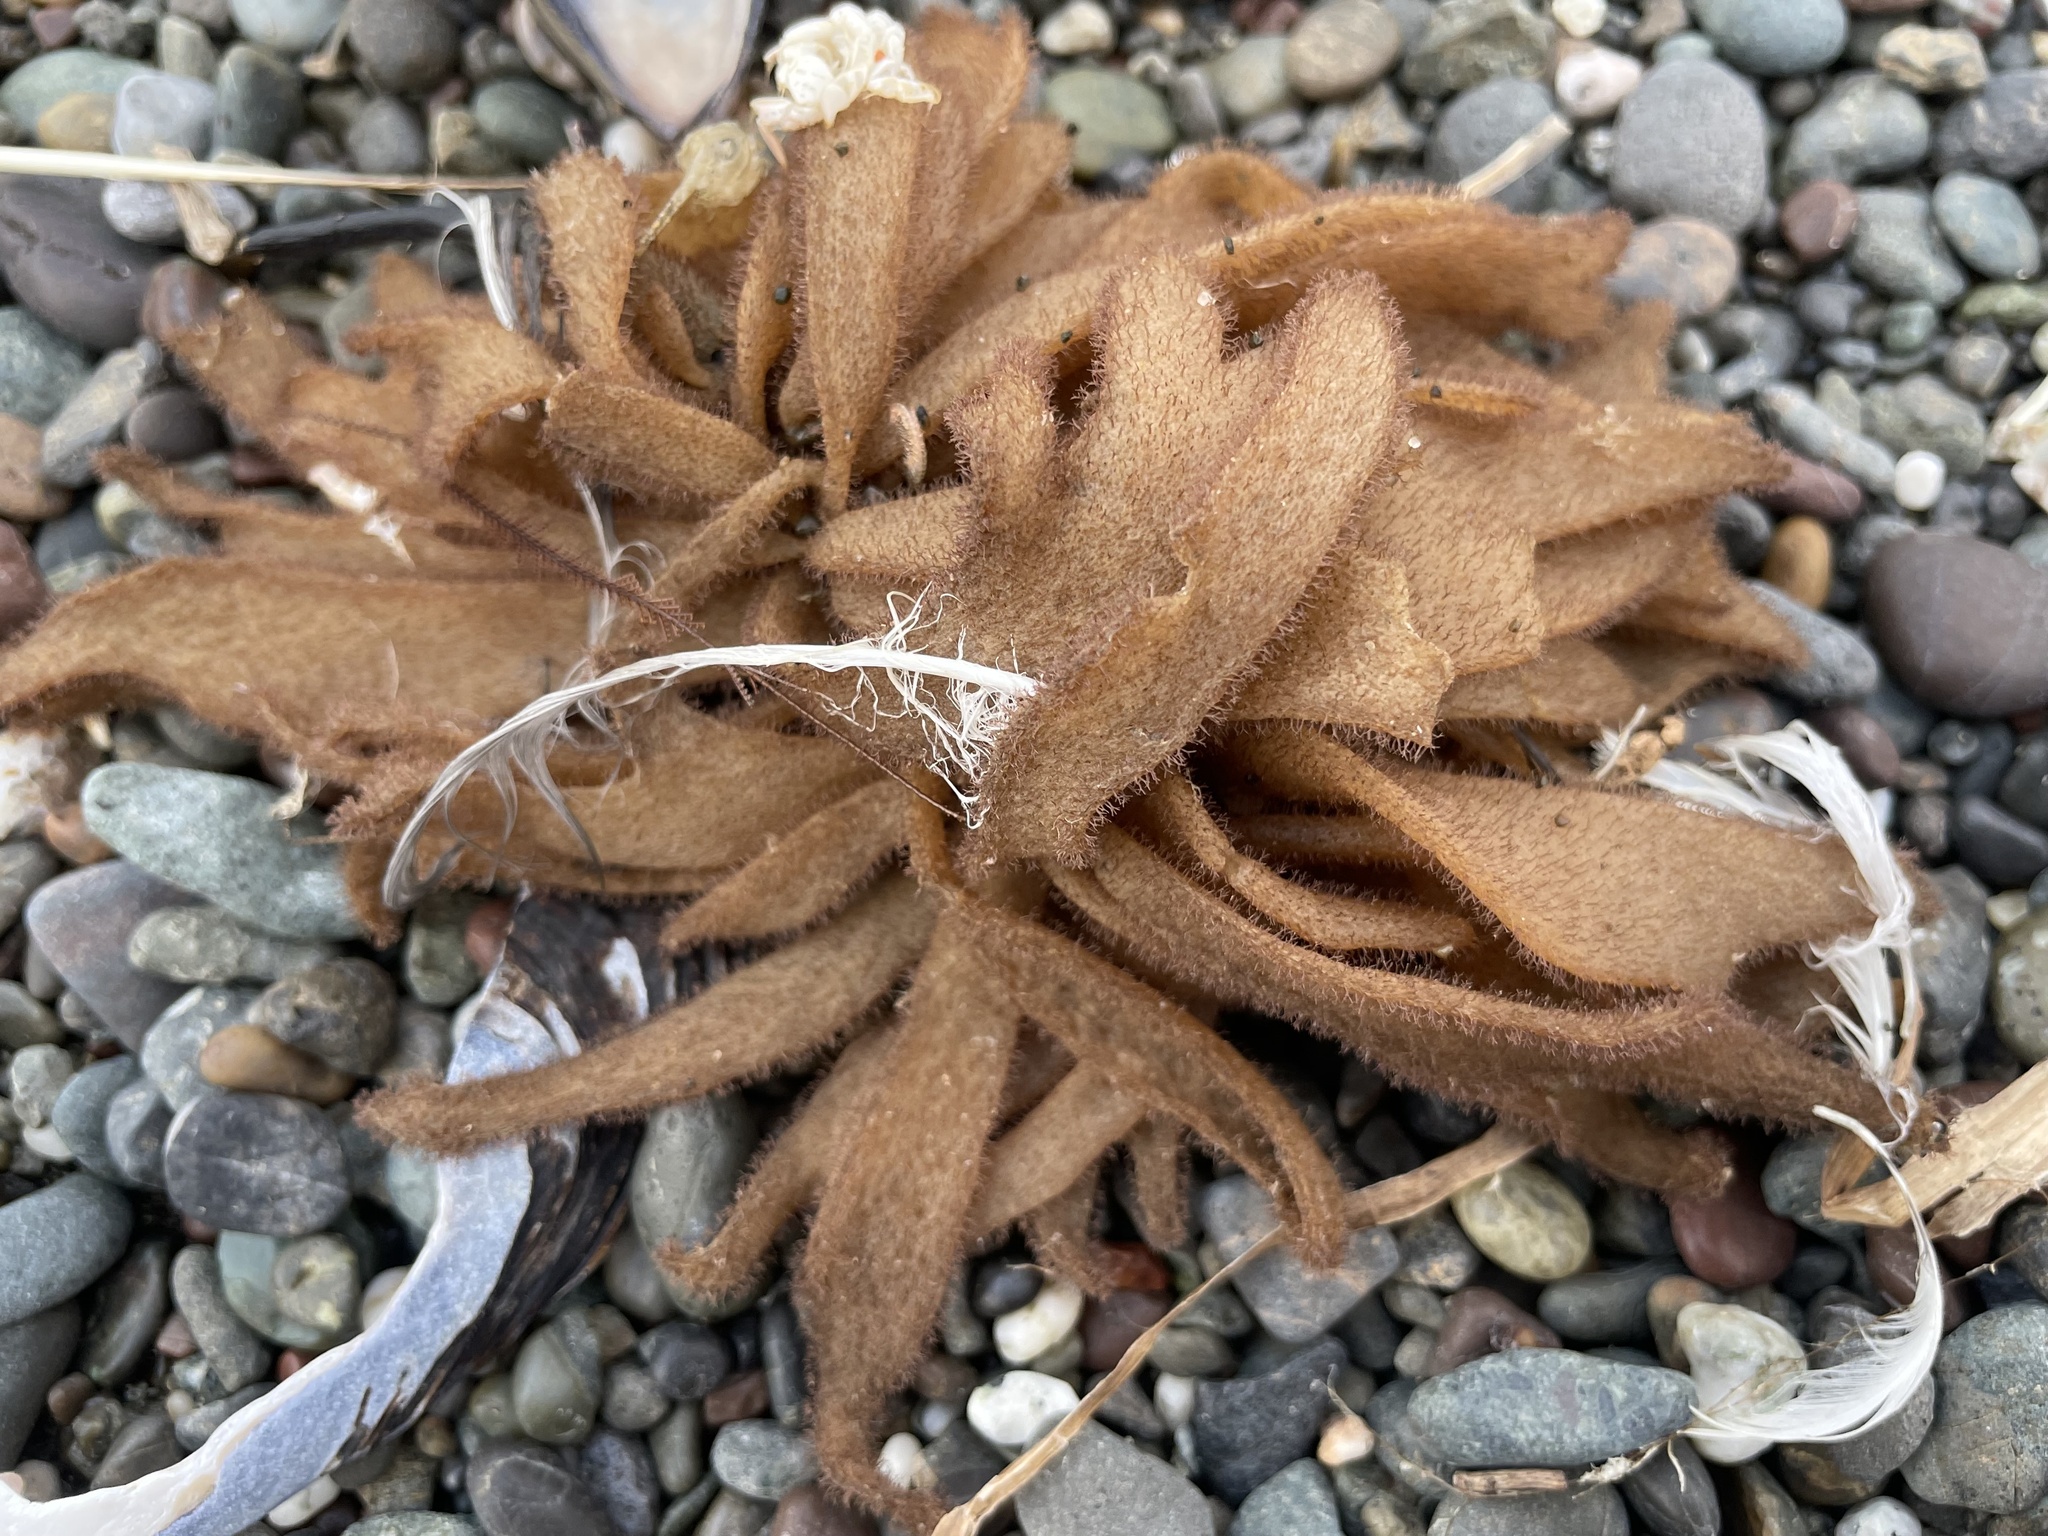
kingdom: Animalia
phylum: Bryozoa
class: Gymnolaemata
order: Ctenostomatida
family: Flustrellidridae
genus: Flustrellidra
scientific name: Flustrellidra corniculata
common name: Spiny leather bryozoan
